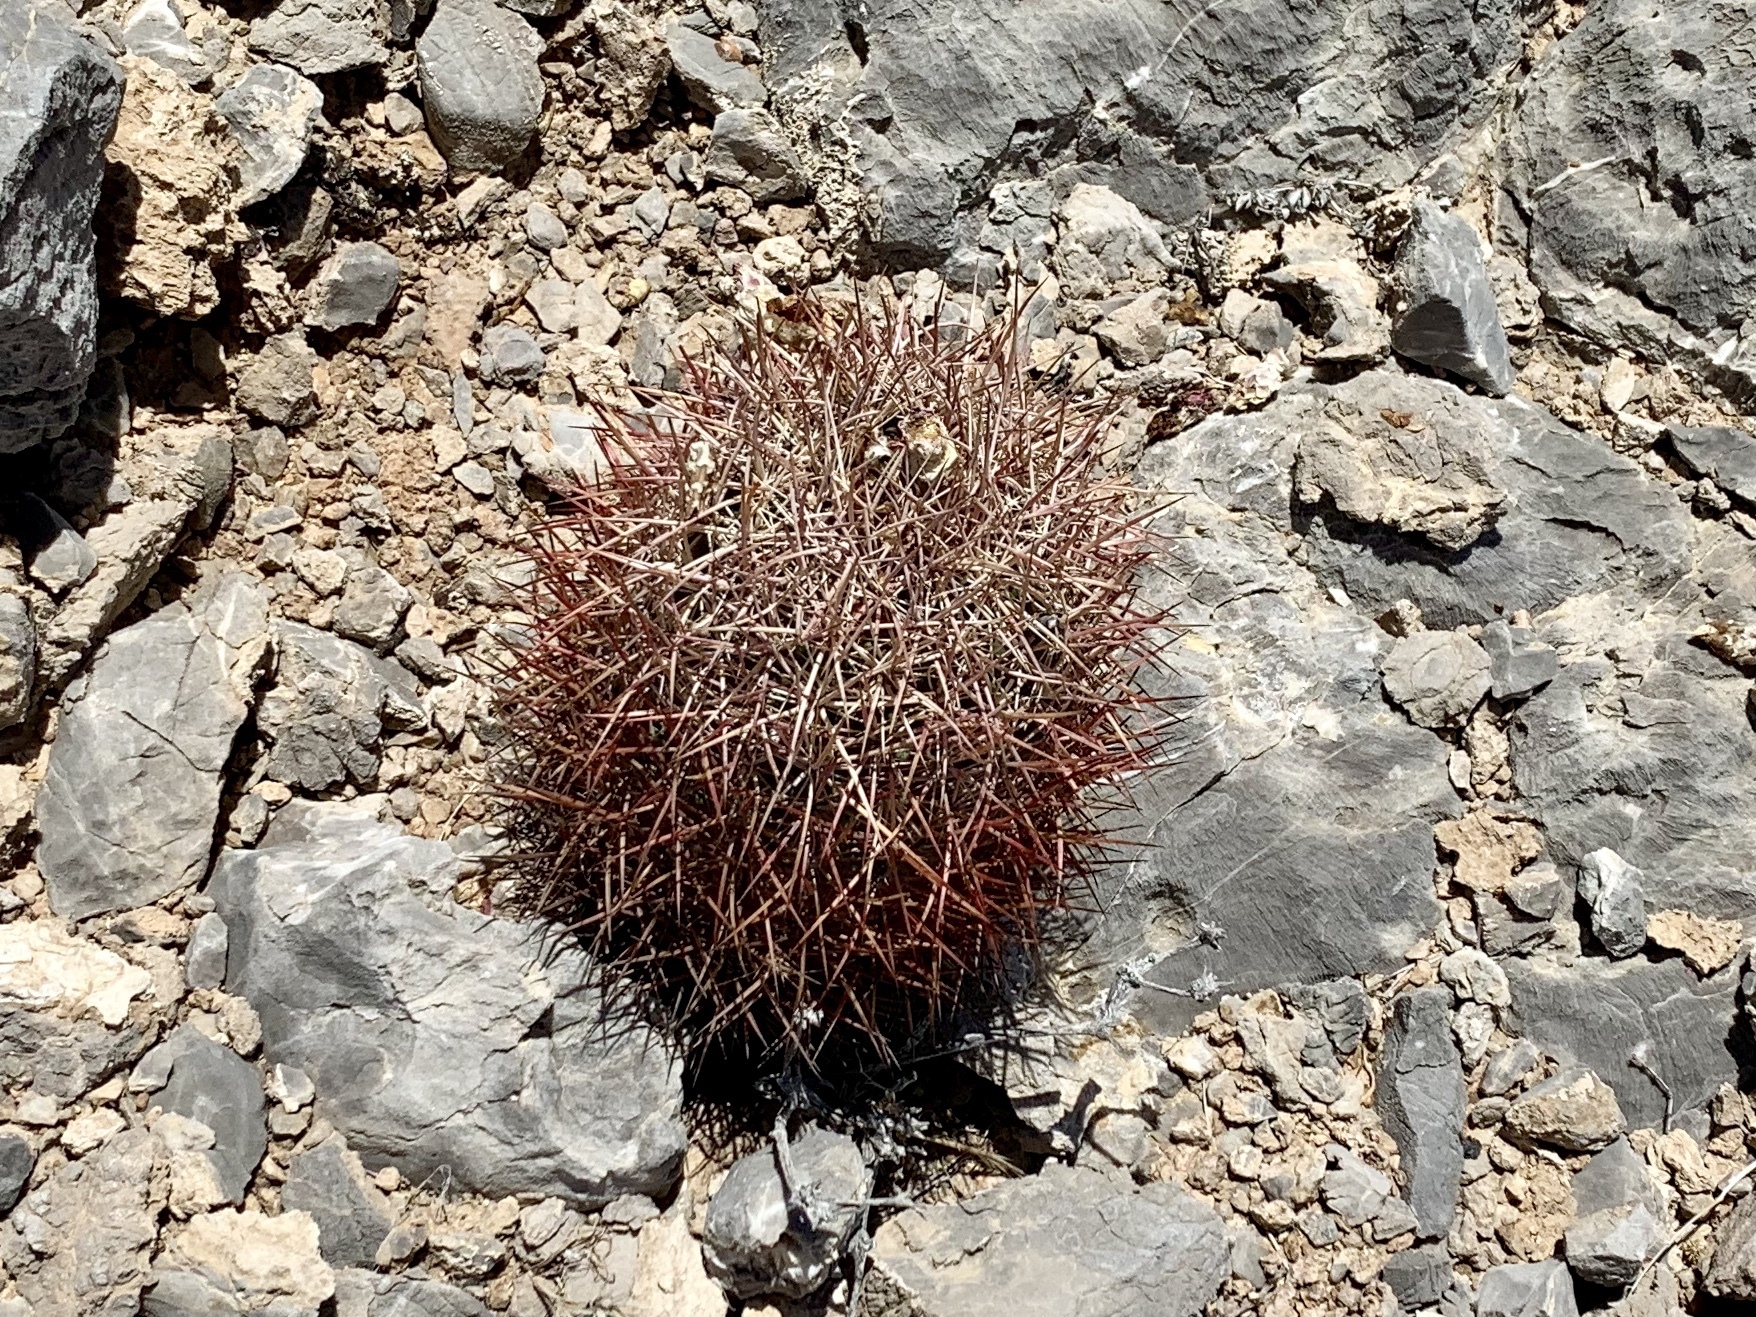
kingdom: Plantae
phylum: Tracheophyta
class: Magnoliopsida
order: Caryophyllales
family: Cactaceae
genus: Sclerocactus
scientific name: Sclerocactus johnsonii
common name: Eight-spine fishhook cactus
